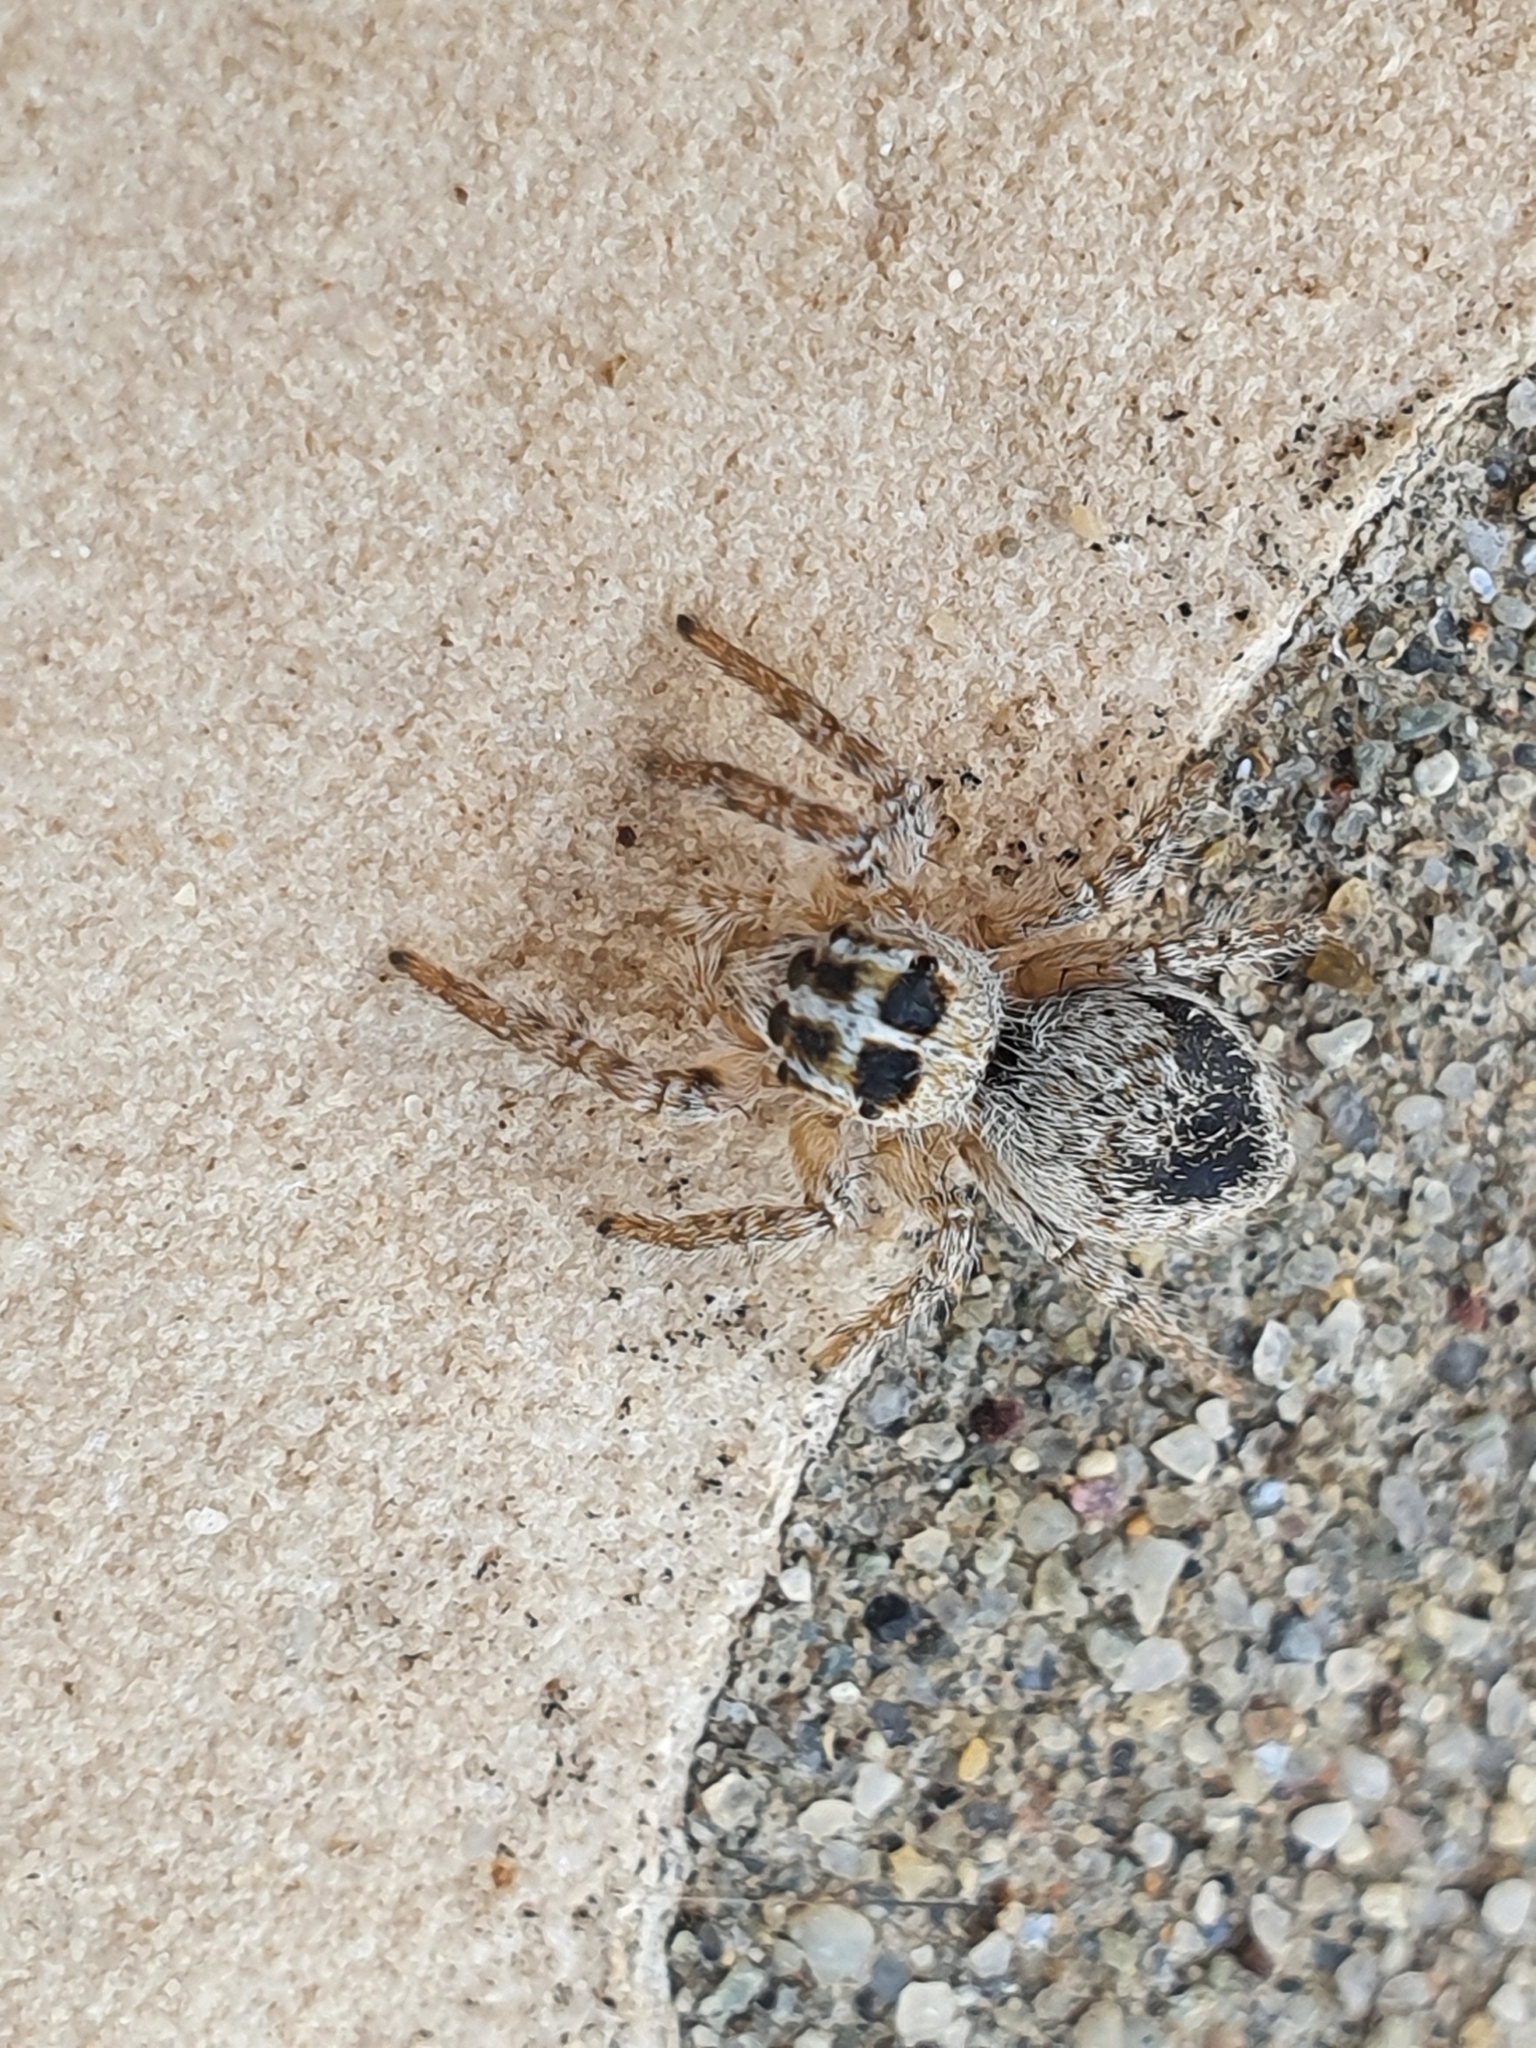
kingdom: Animalia
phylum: Arthropoda
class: Arachnida
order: Araneae
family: Salticidae
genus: Philaeus
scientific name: Philaeus chrysops
